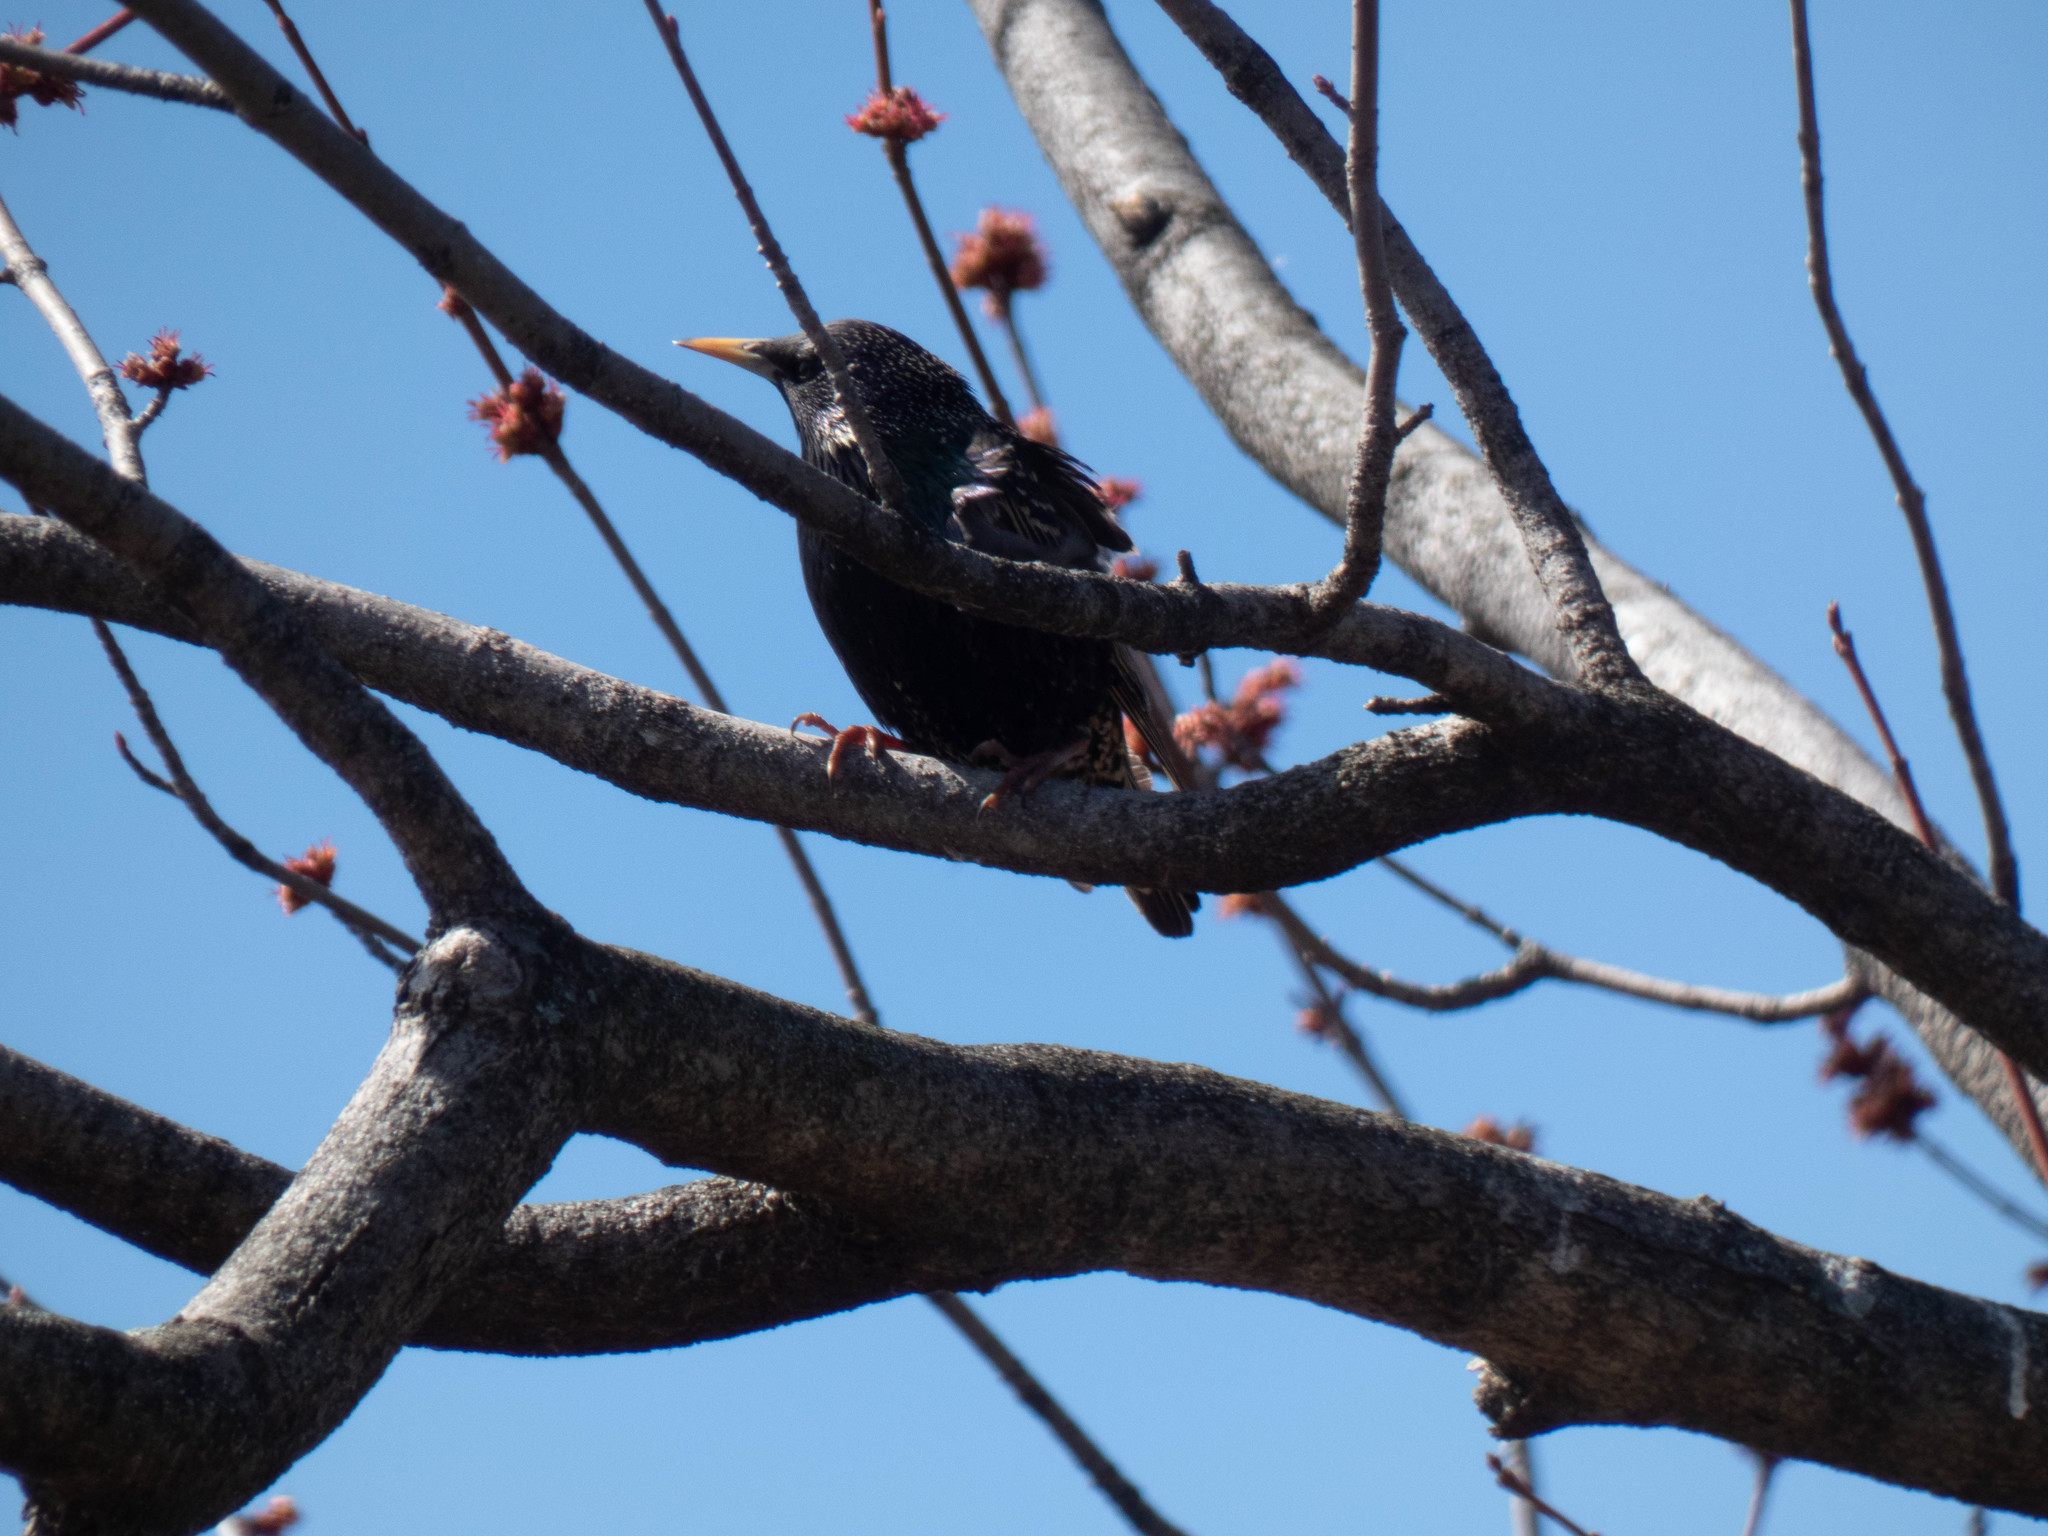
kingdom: Animalia
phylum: Chordata
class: Aves
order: Passeriformes
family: Sturnidae
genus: Sturnus
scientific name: Sturnus vulgaris
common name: Common starling
